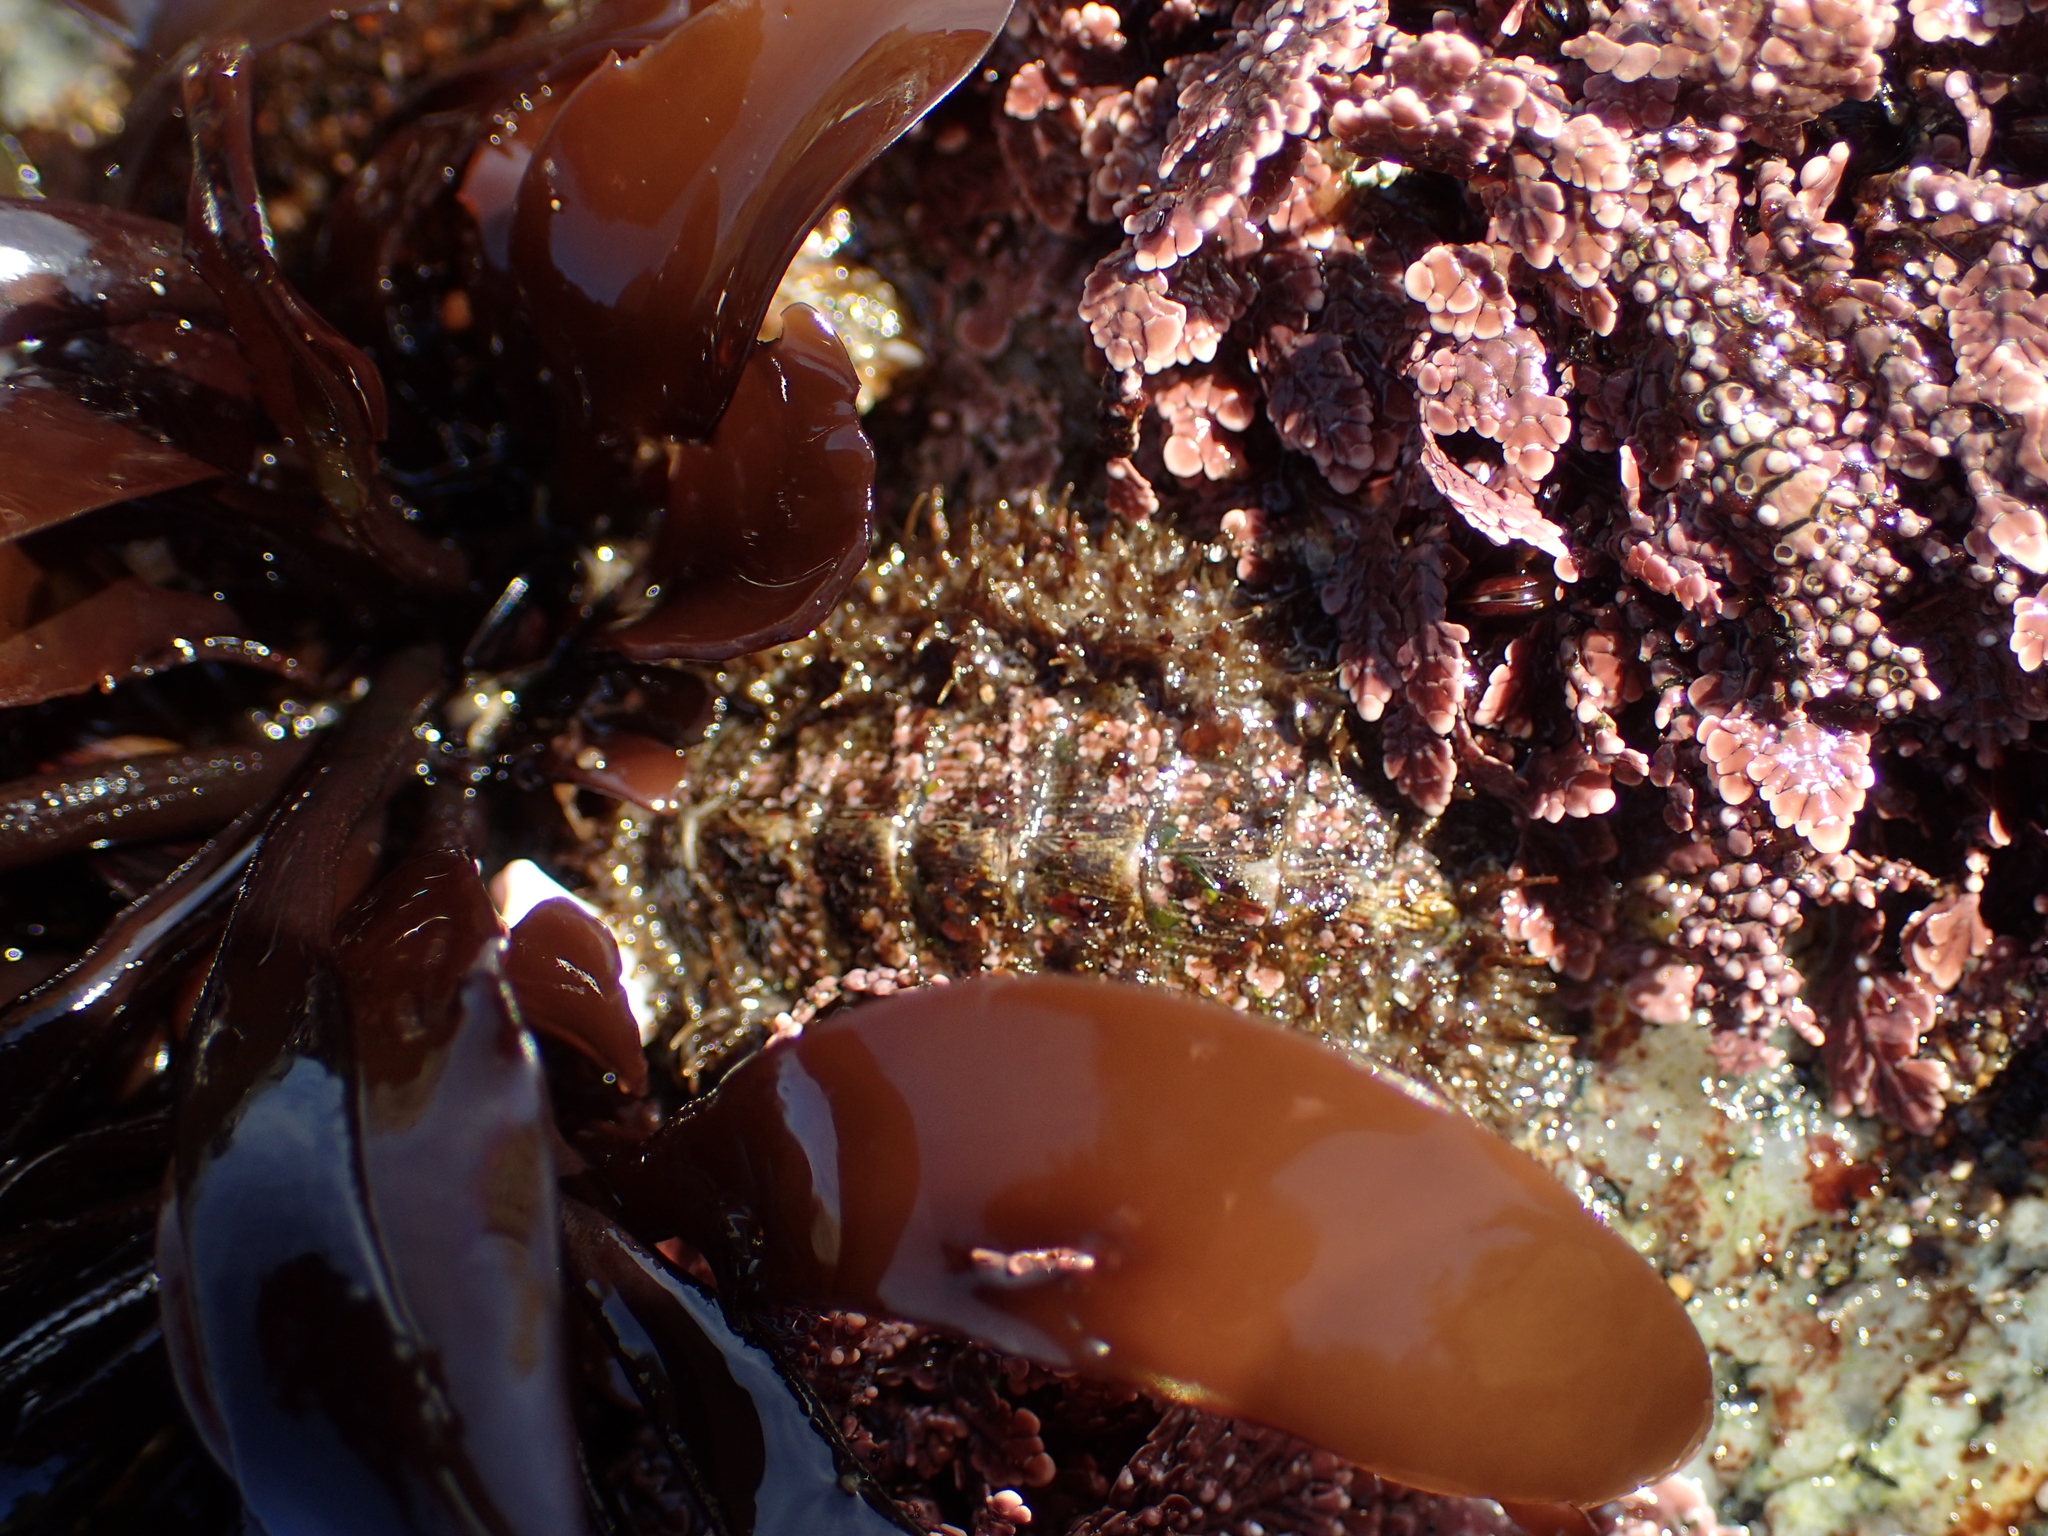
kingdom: Animalia
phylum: Mollusca
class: Polyplacophora
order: Chitonida
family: Mopaliidae
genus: Mopalia
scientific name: Mopalia muscosa
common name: Mossy chiton
